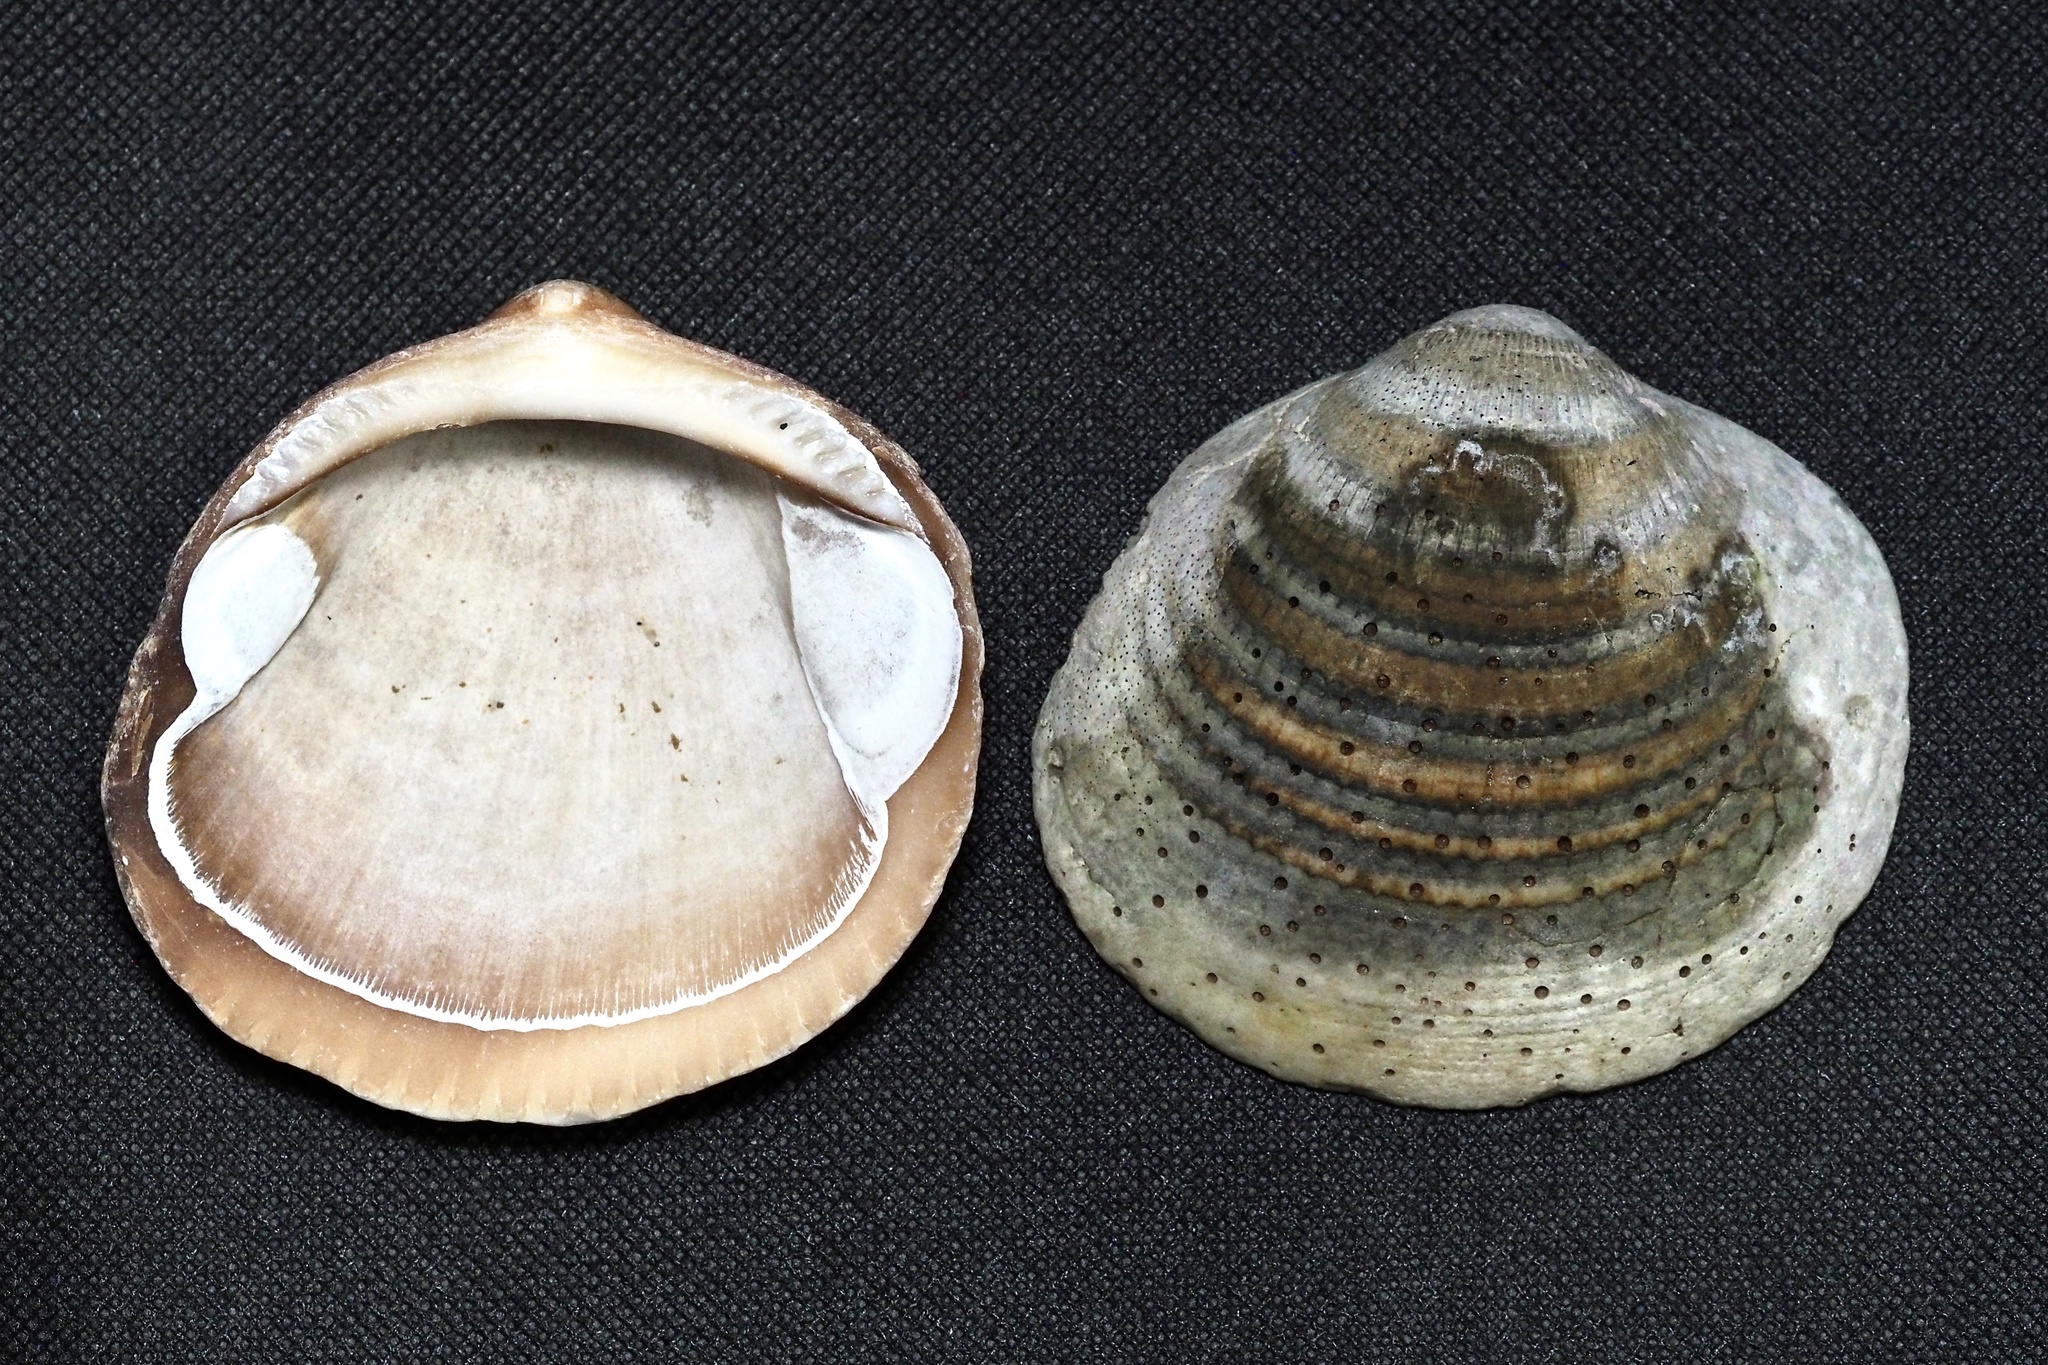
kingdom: Animalia
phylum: Mollusca
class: Bivalvia
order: Arcida
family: Glycymerididae
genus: Glycymeris
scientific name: Glycymeris albolineata
